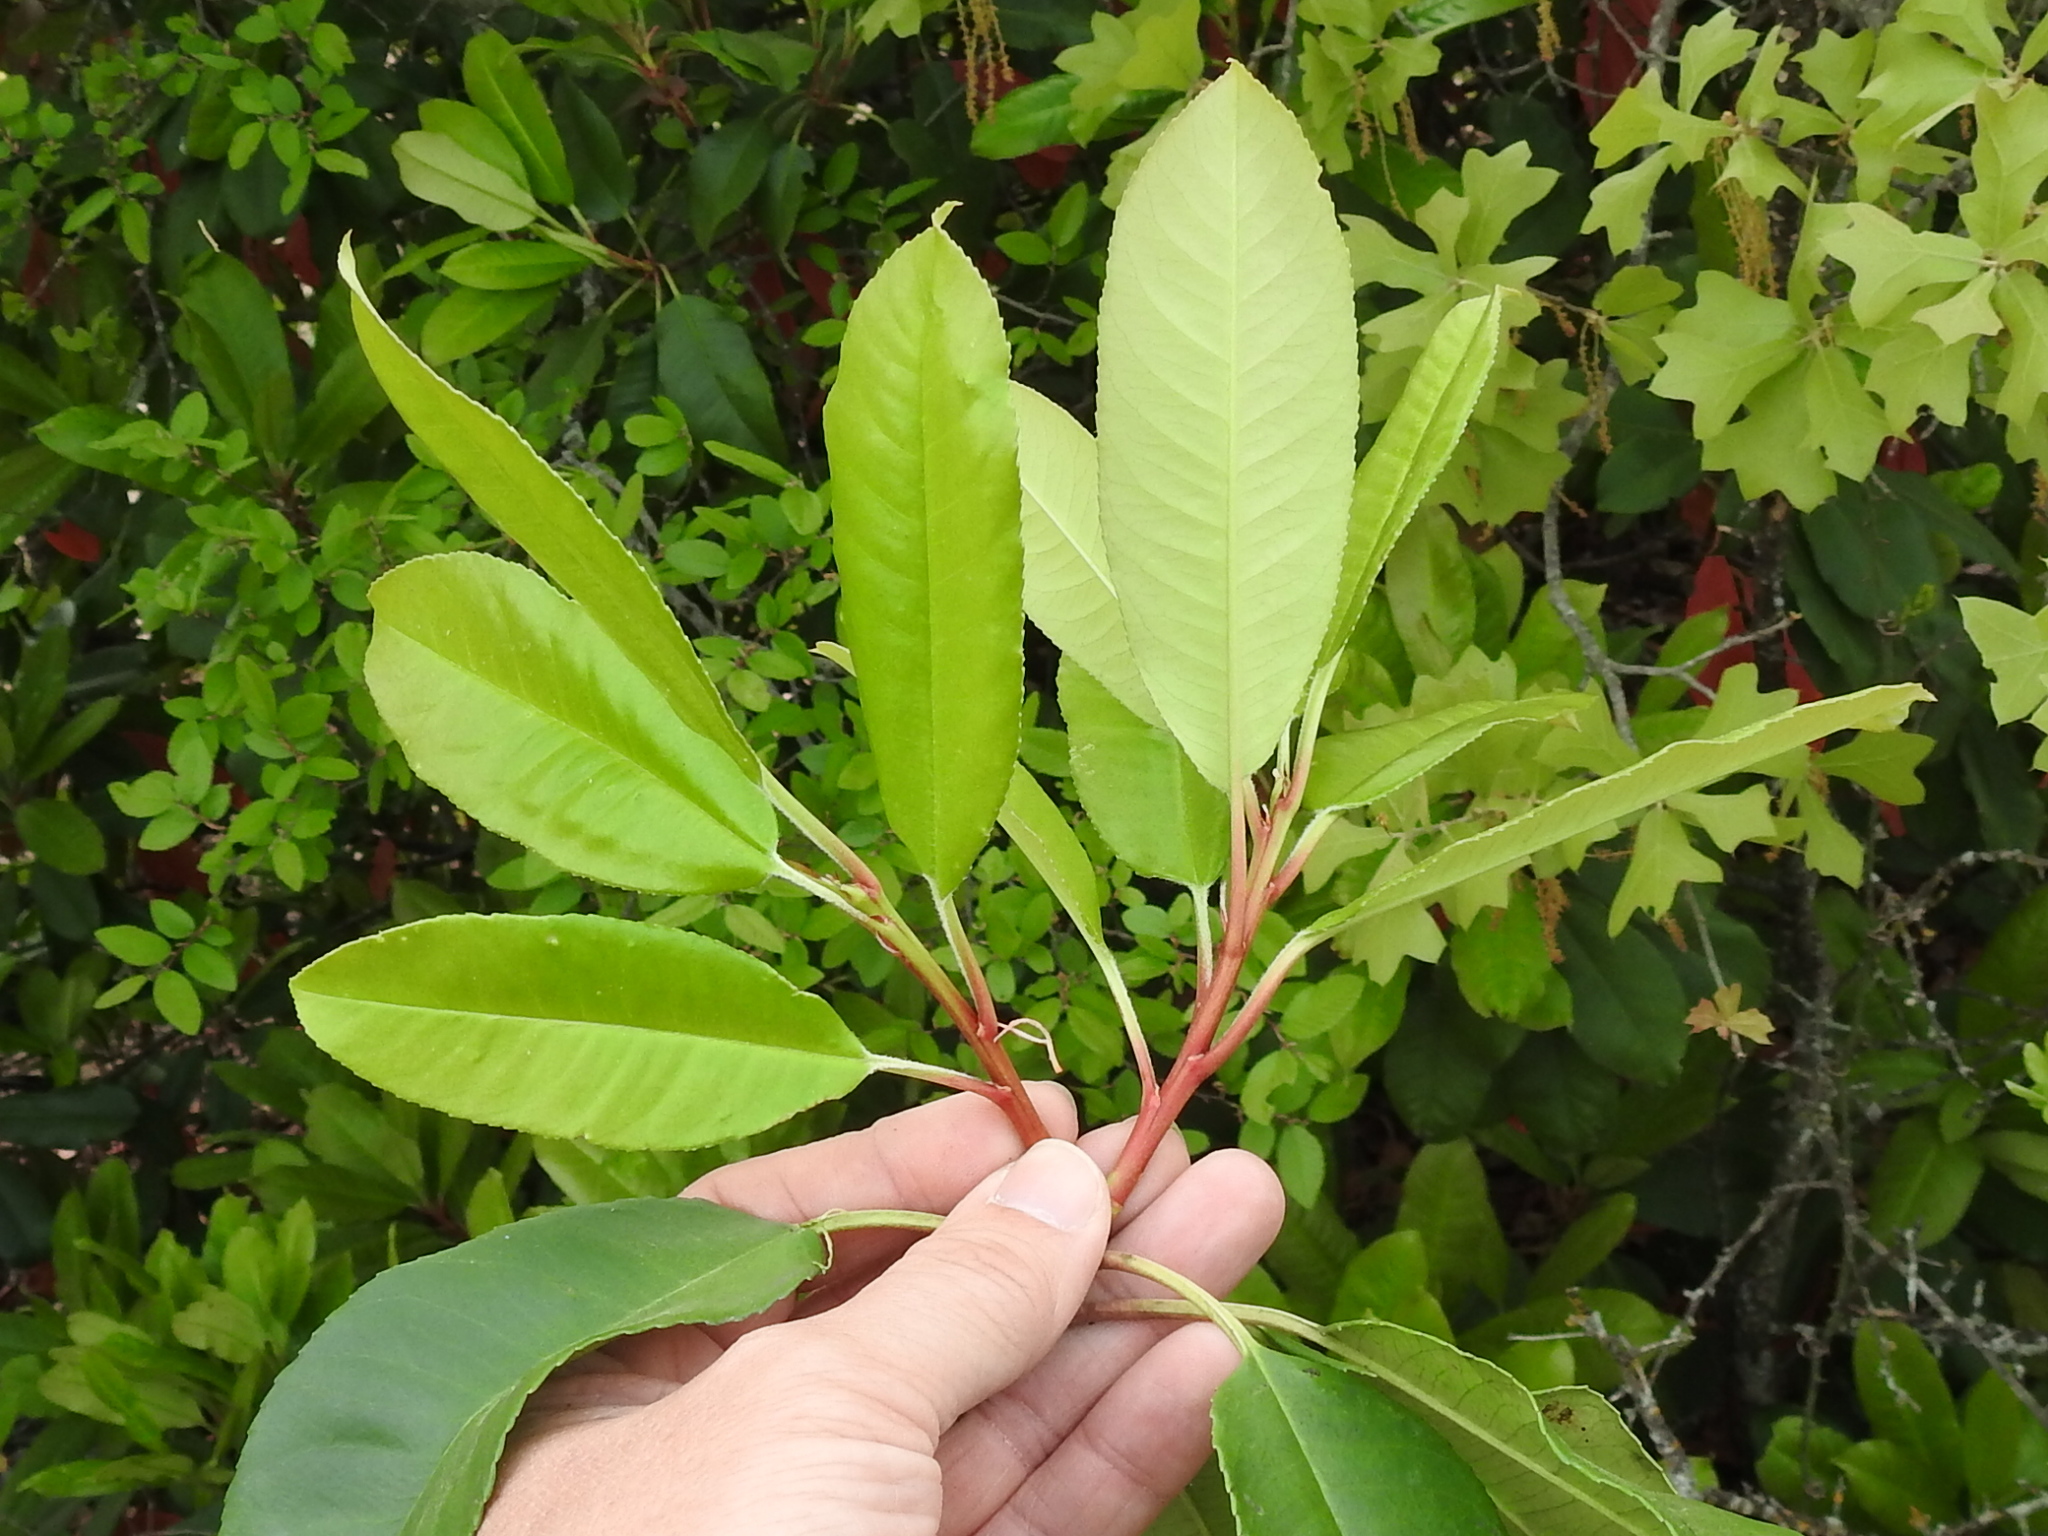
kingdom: Plantae
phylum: Tracheophyta
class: Magnoliopsida
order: Rosales
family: Rosaceae
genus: Photinia
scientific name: Photinia serratifolia
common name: Taiwanese photinia
